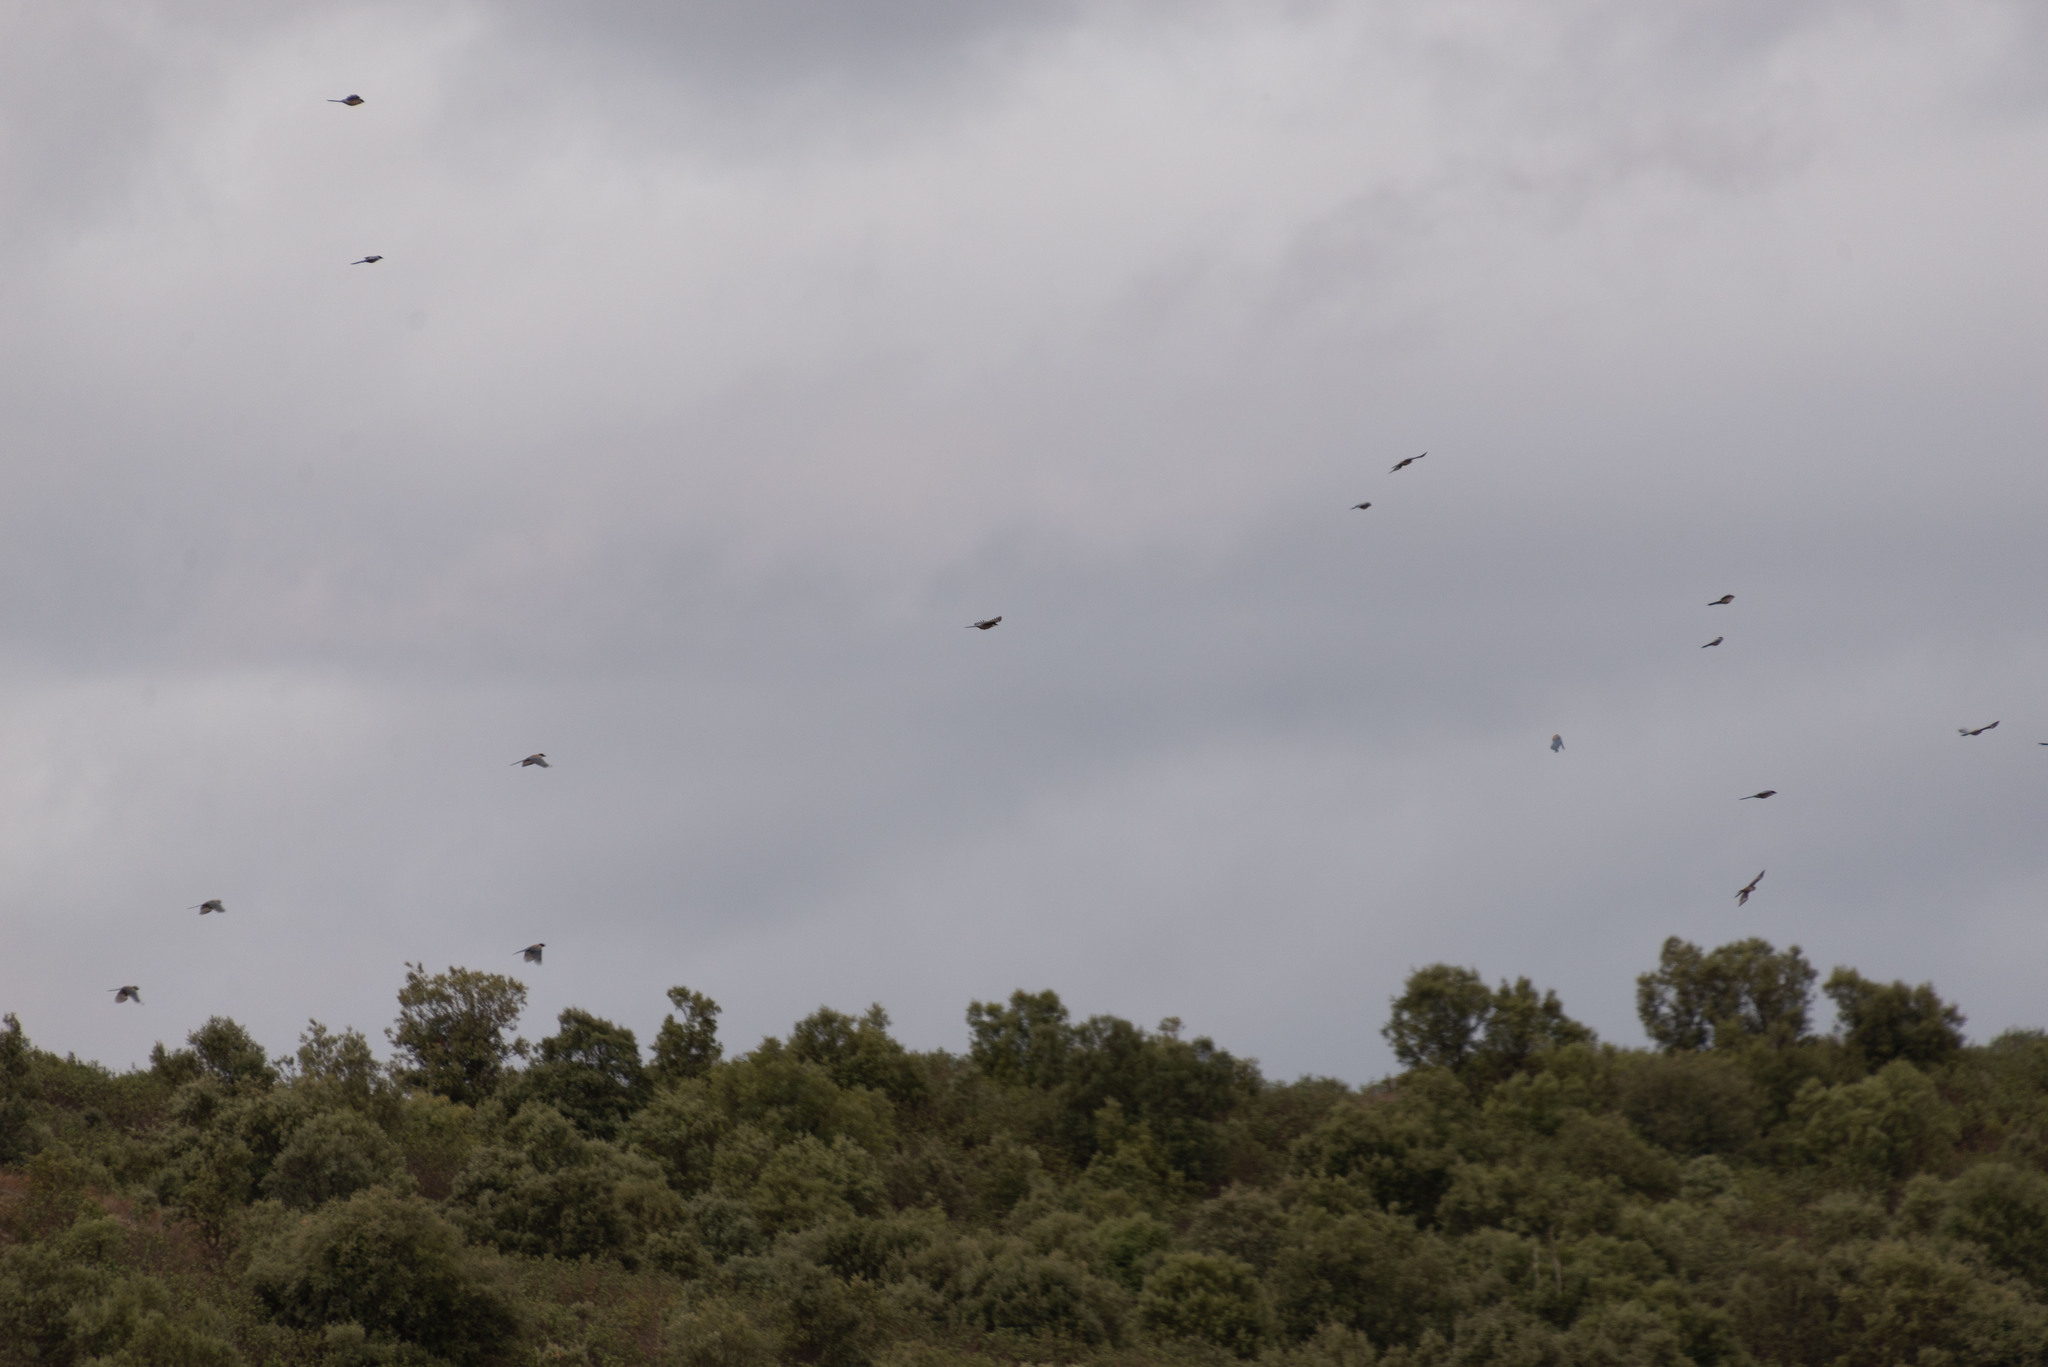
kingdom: Animalia
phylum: Chordata
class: Aves
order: Passeriformes
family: Corvidae
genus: Cyanopica
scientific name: Cyanopica cooki
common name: Iberian magpie
